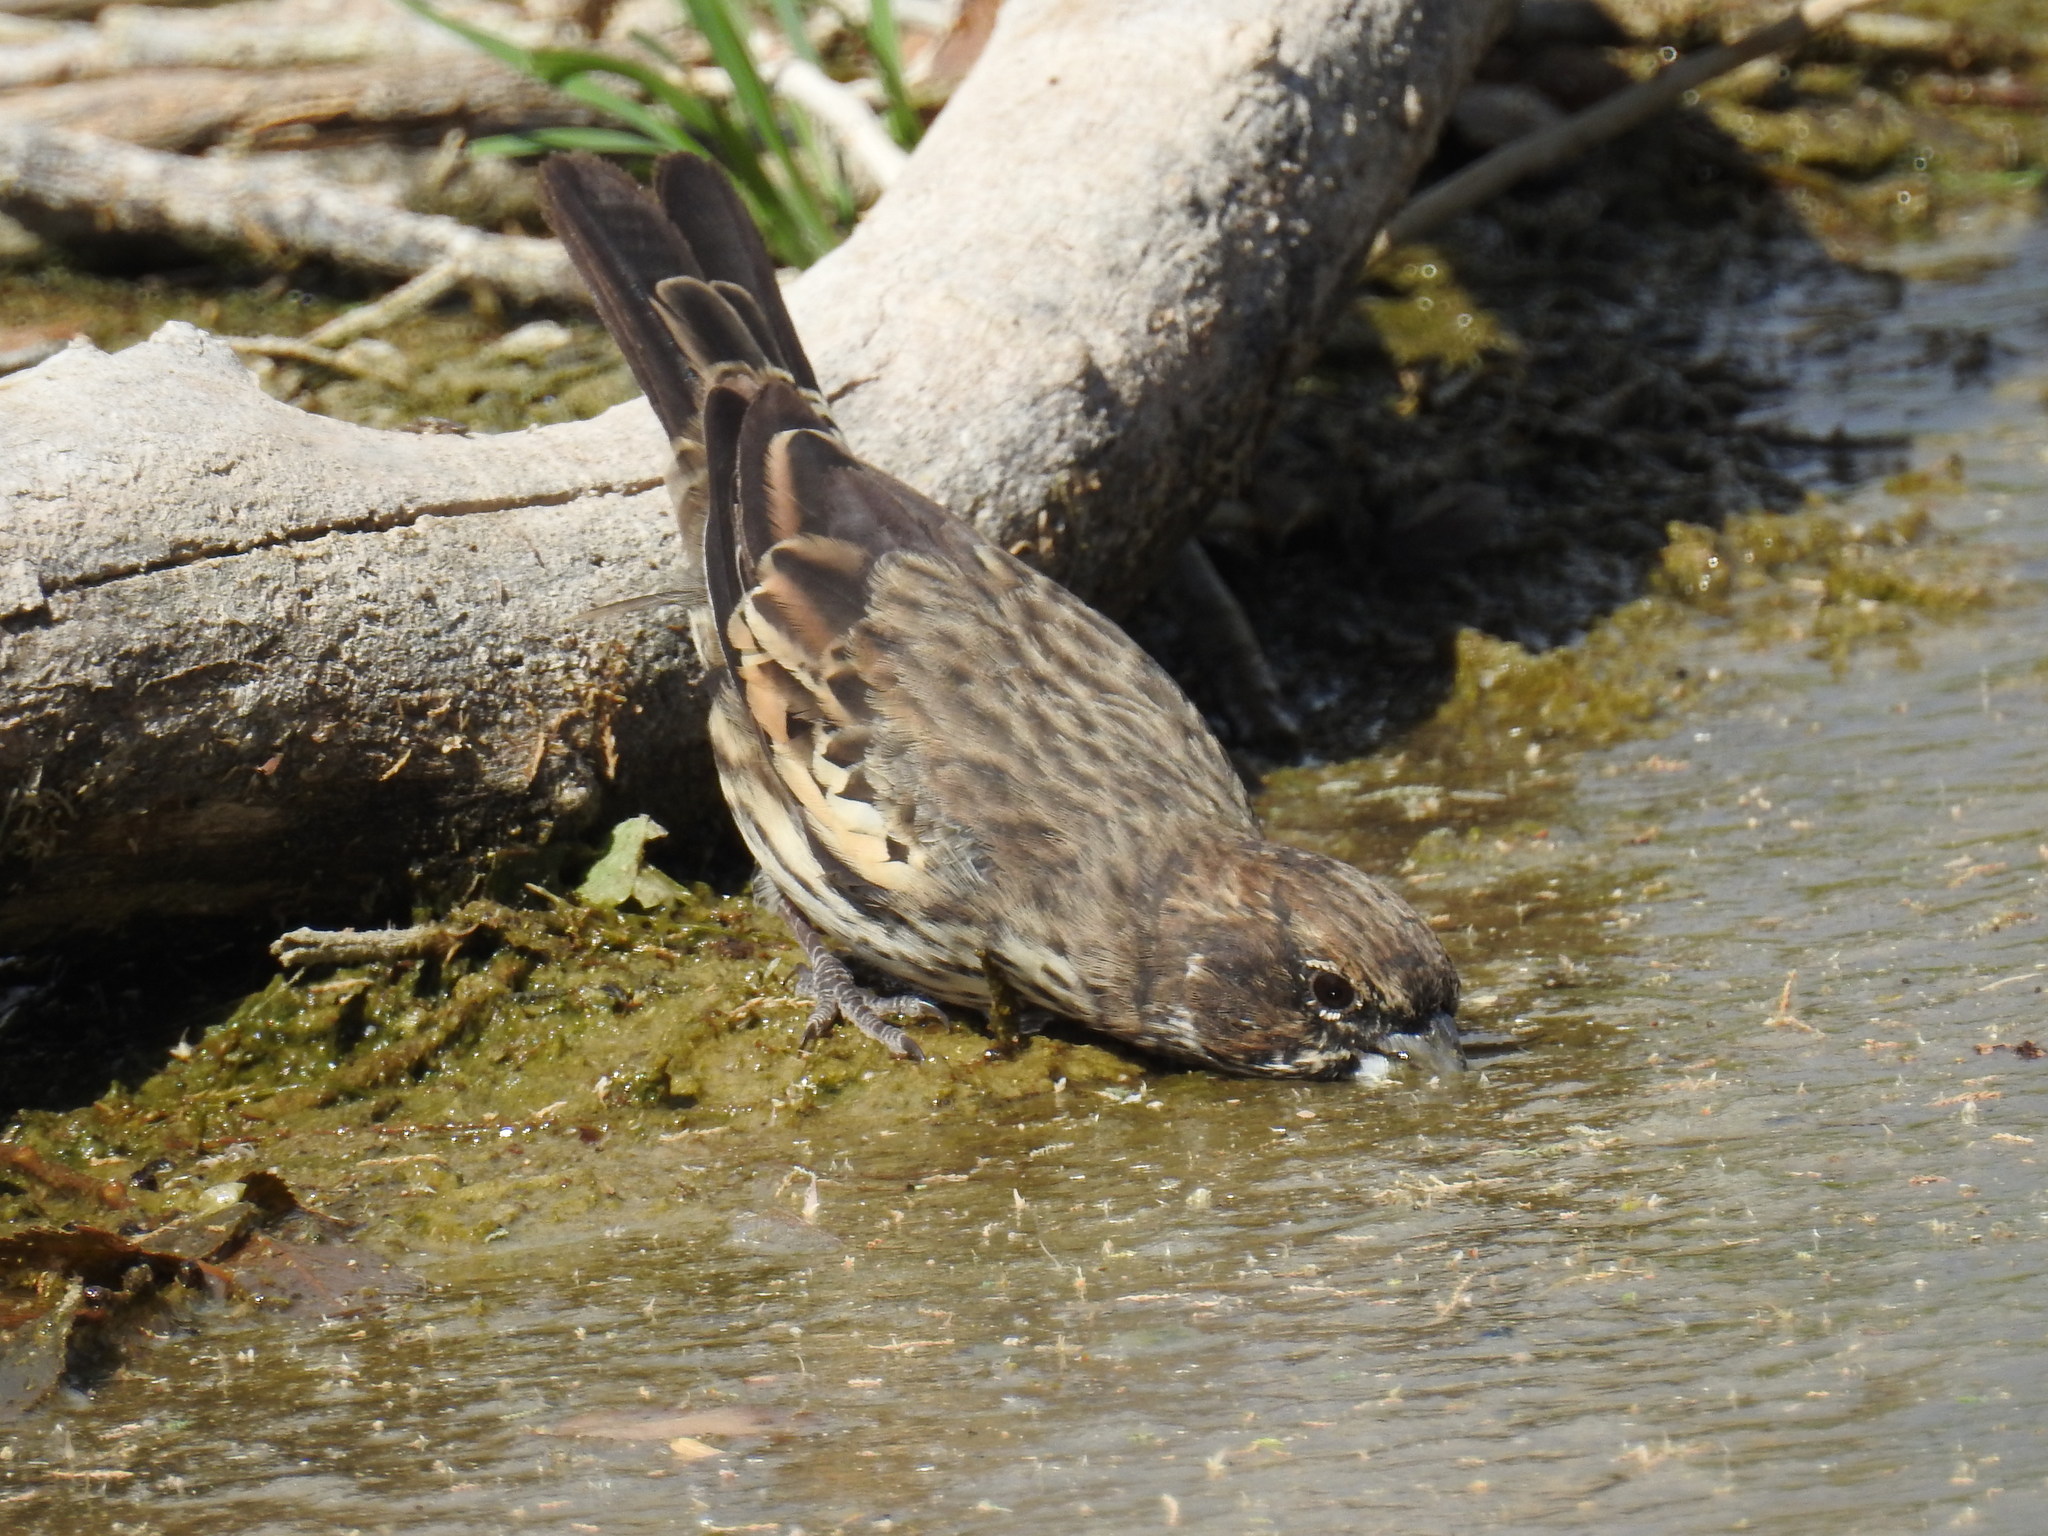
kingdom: Animalia
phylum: Chordata
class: Aves
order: Passeriformes
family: Passerellidae
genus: Calamospiza
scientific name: Calamospiza melanocorys
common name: Lark bunting
